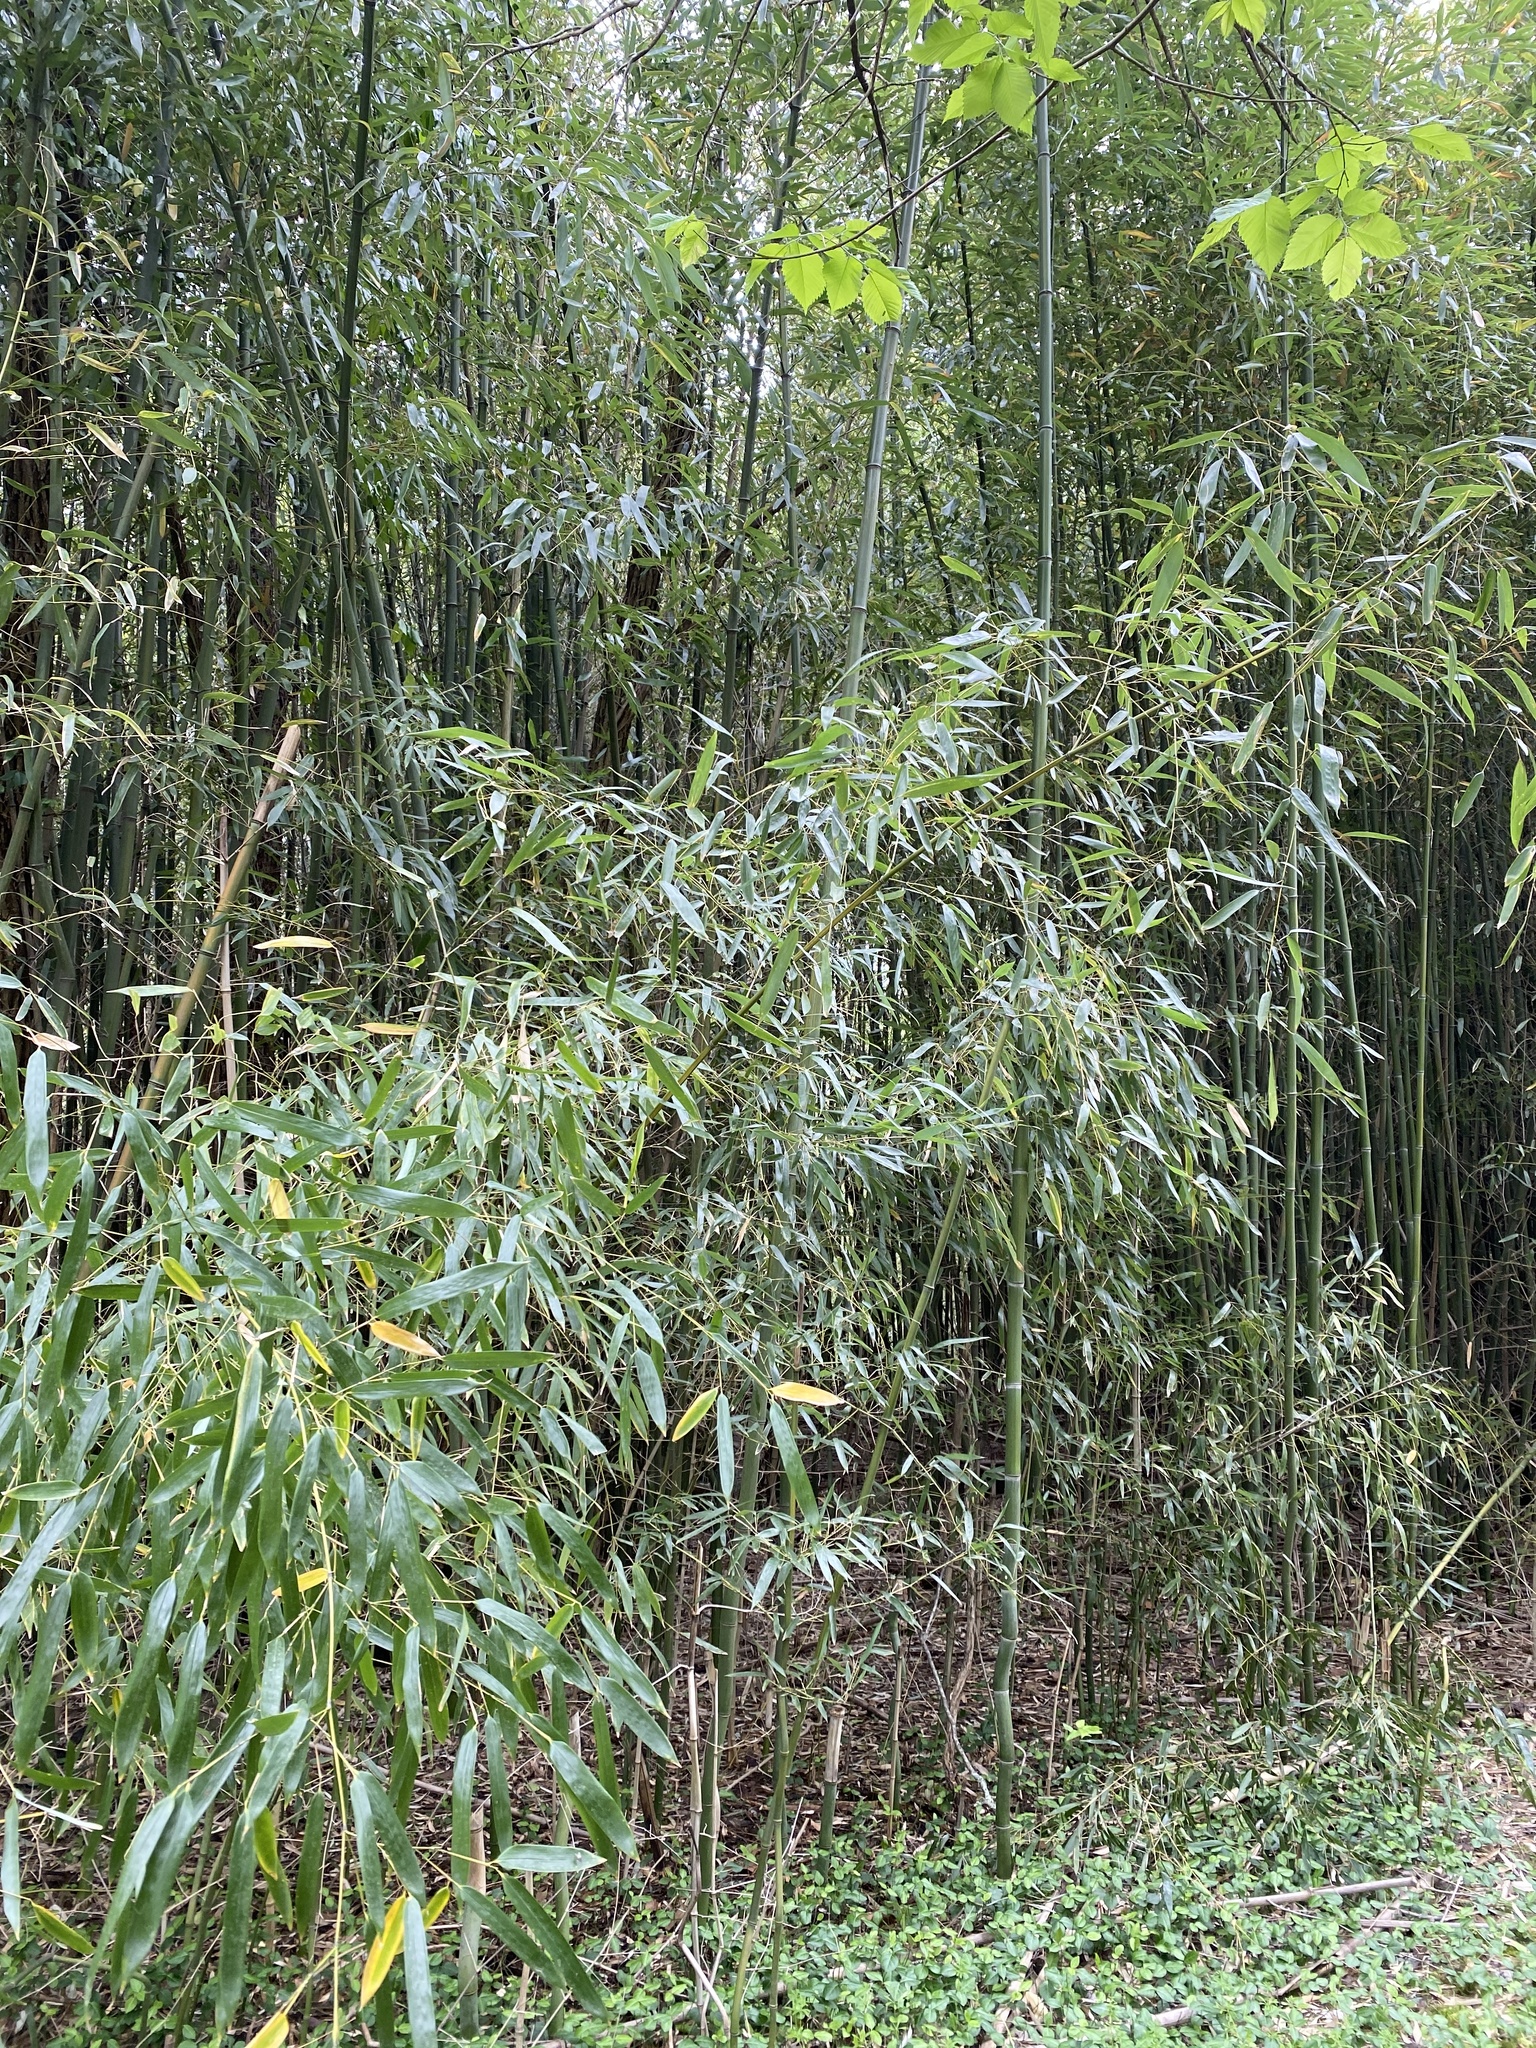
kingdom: Plantae
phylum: Tracheophyta
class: Liliopsida
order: Poales
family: Poaceae
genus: Phyllostachys
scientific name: Phyllostachys aureosulcata
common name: Yellow groove bamboo
